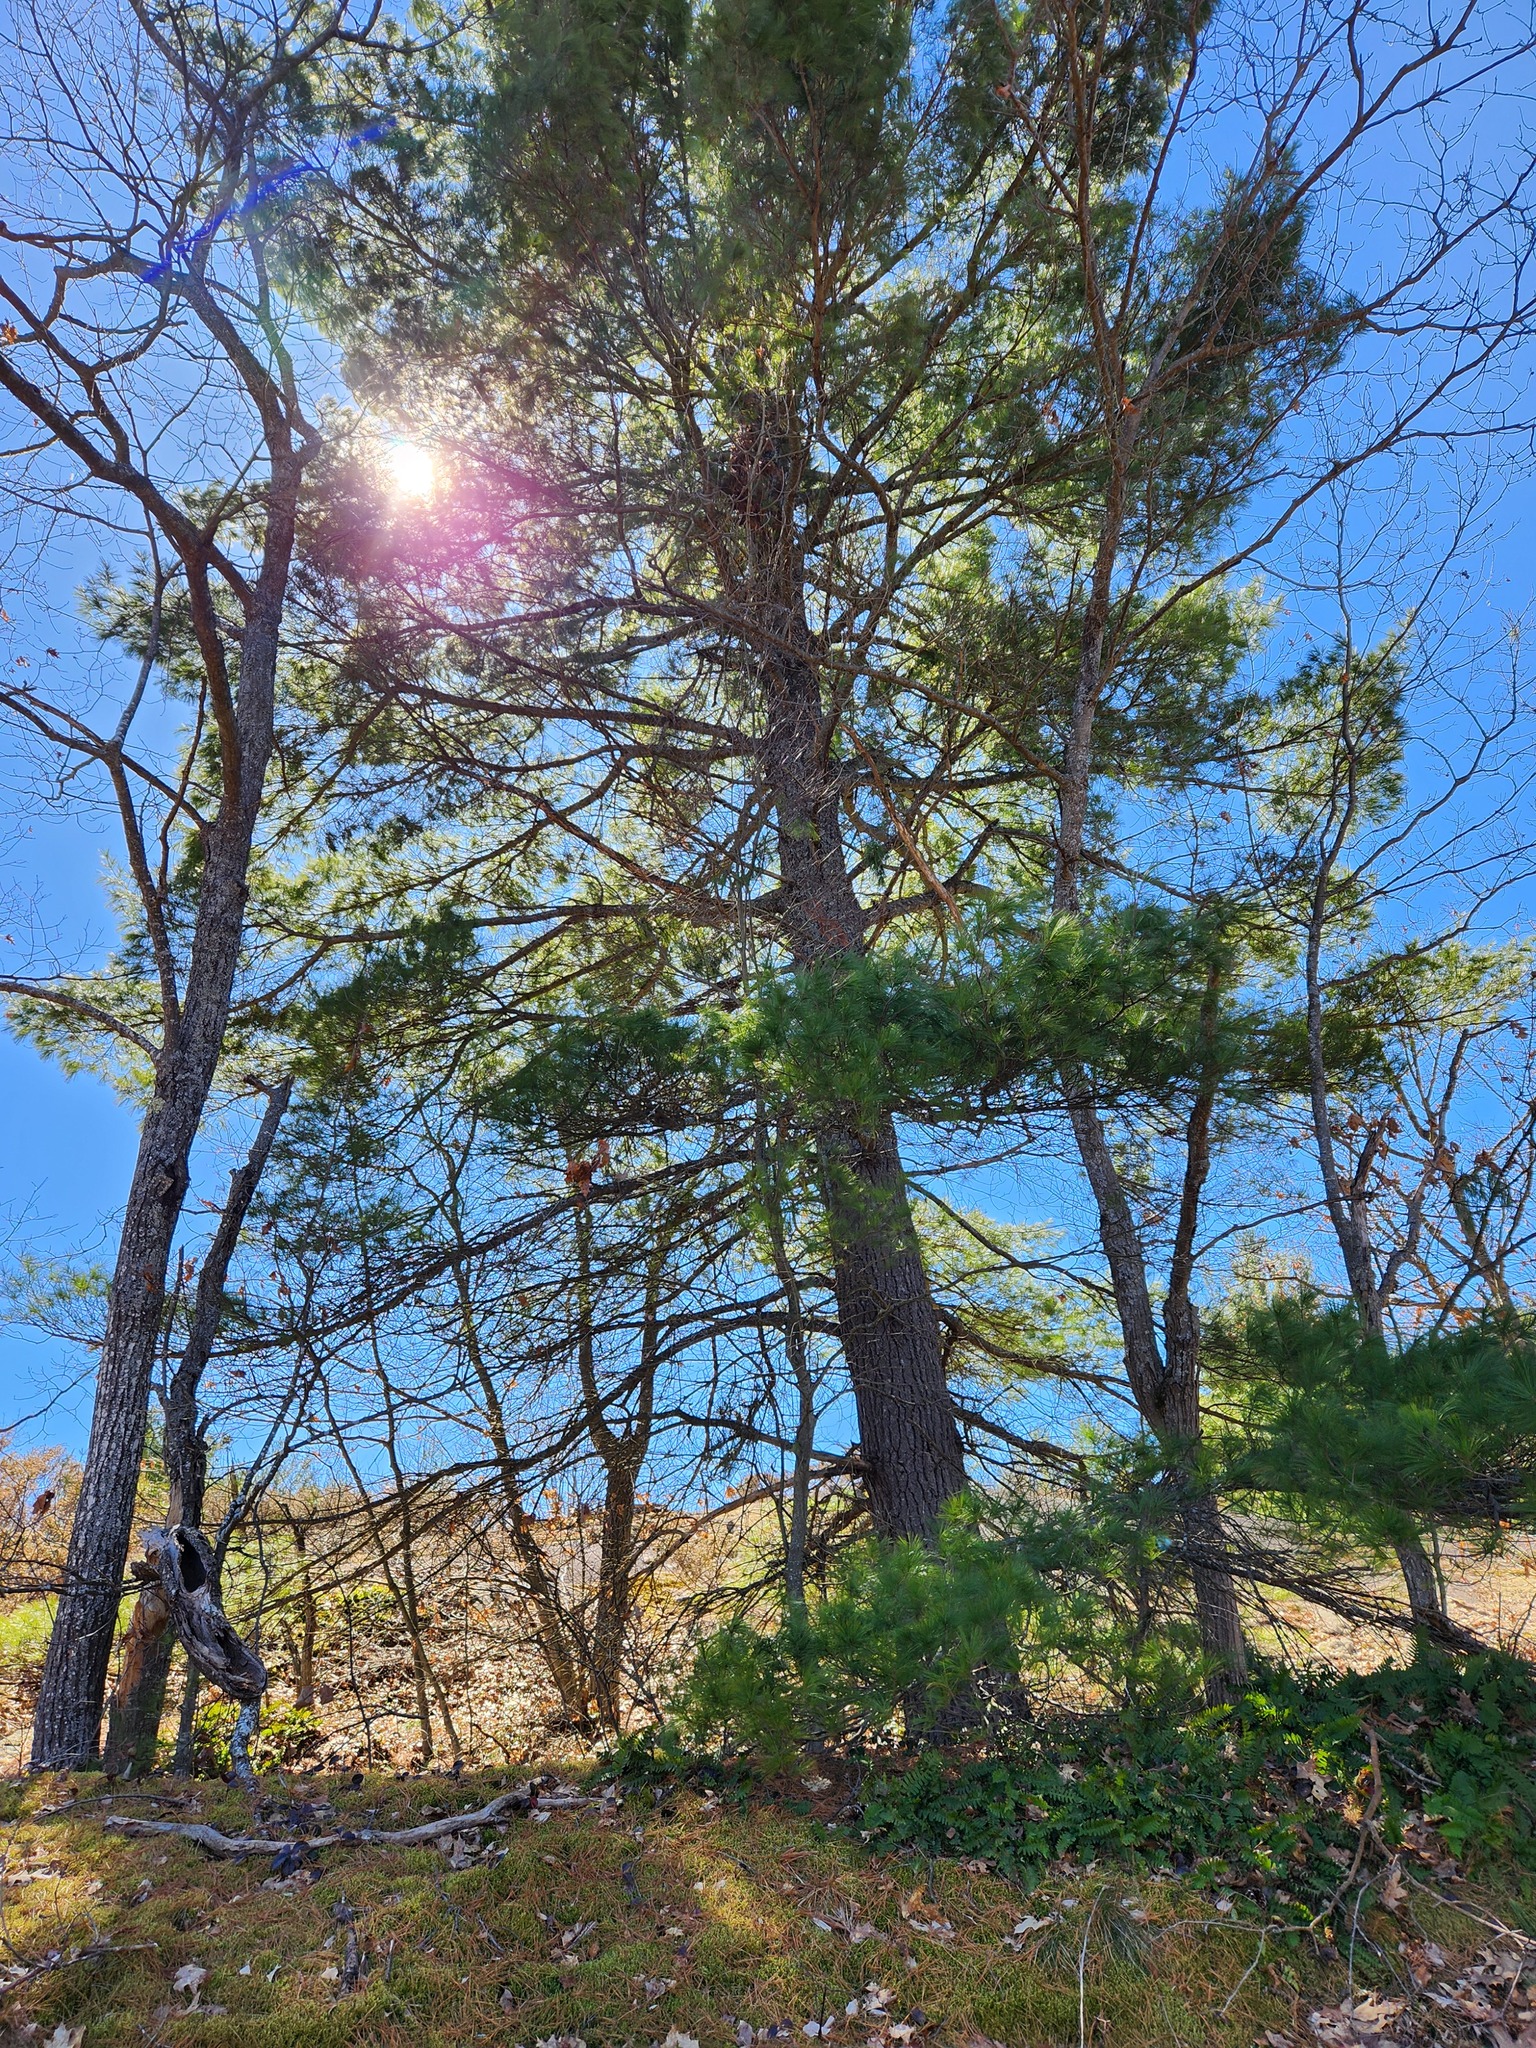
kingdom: Plantae
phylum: Tracheophyta
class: Pinopsida
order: Pinales
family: Pinaceae
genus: Pinus
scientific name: Pinus strobus
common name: Weymouth pine
